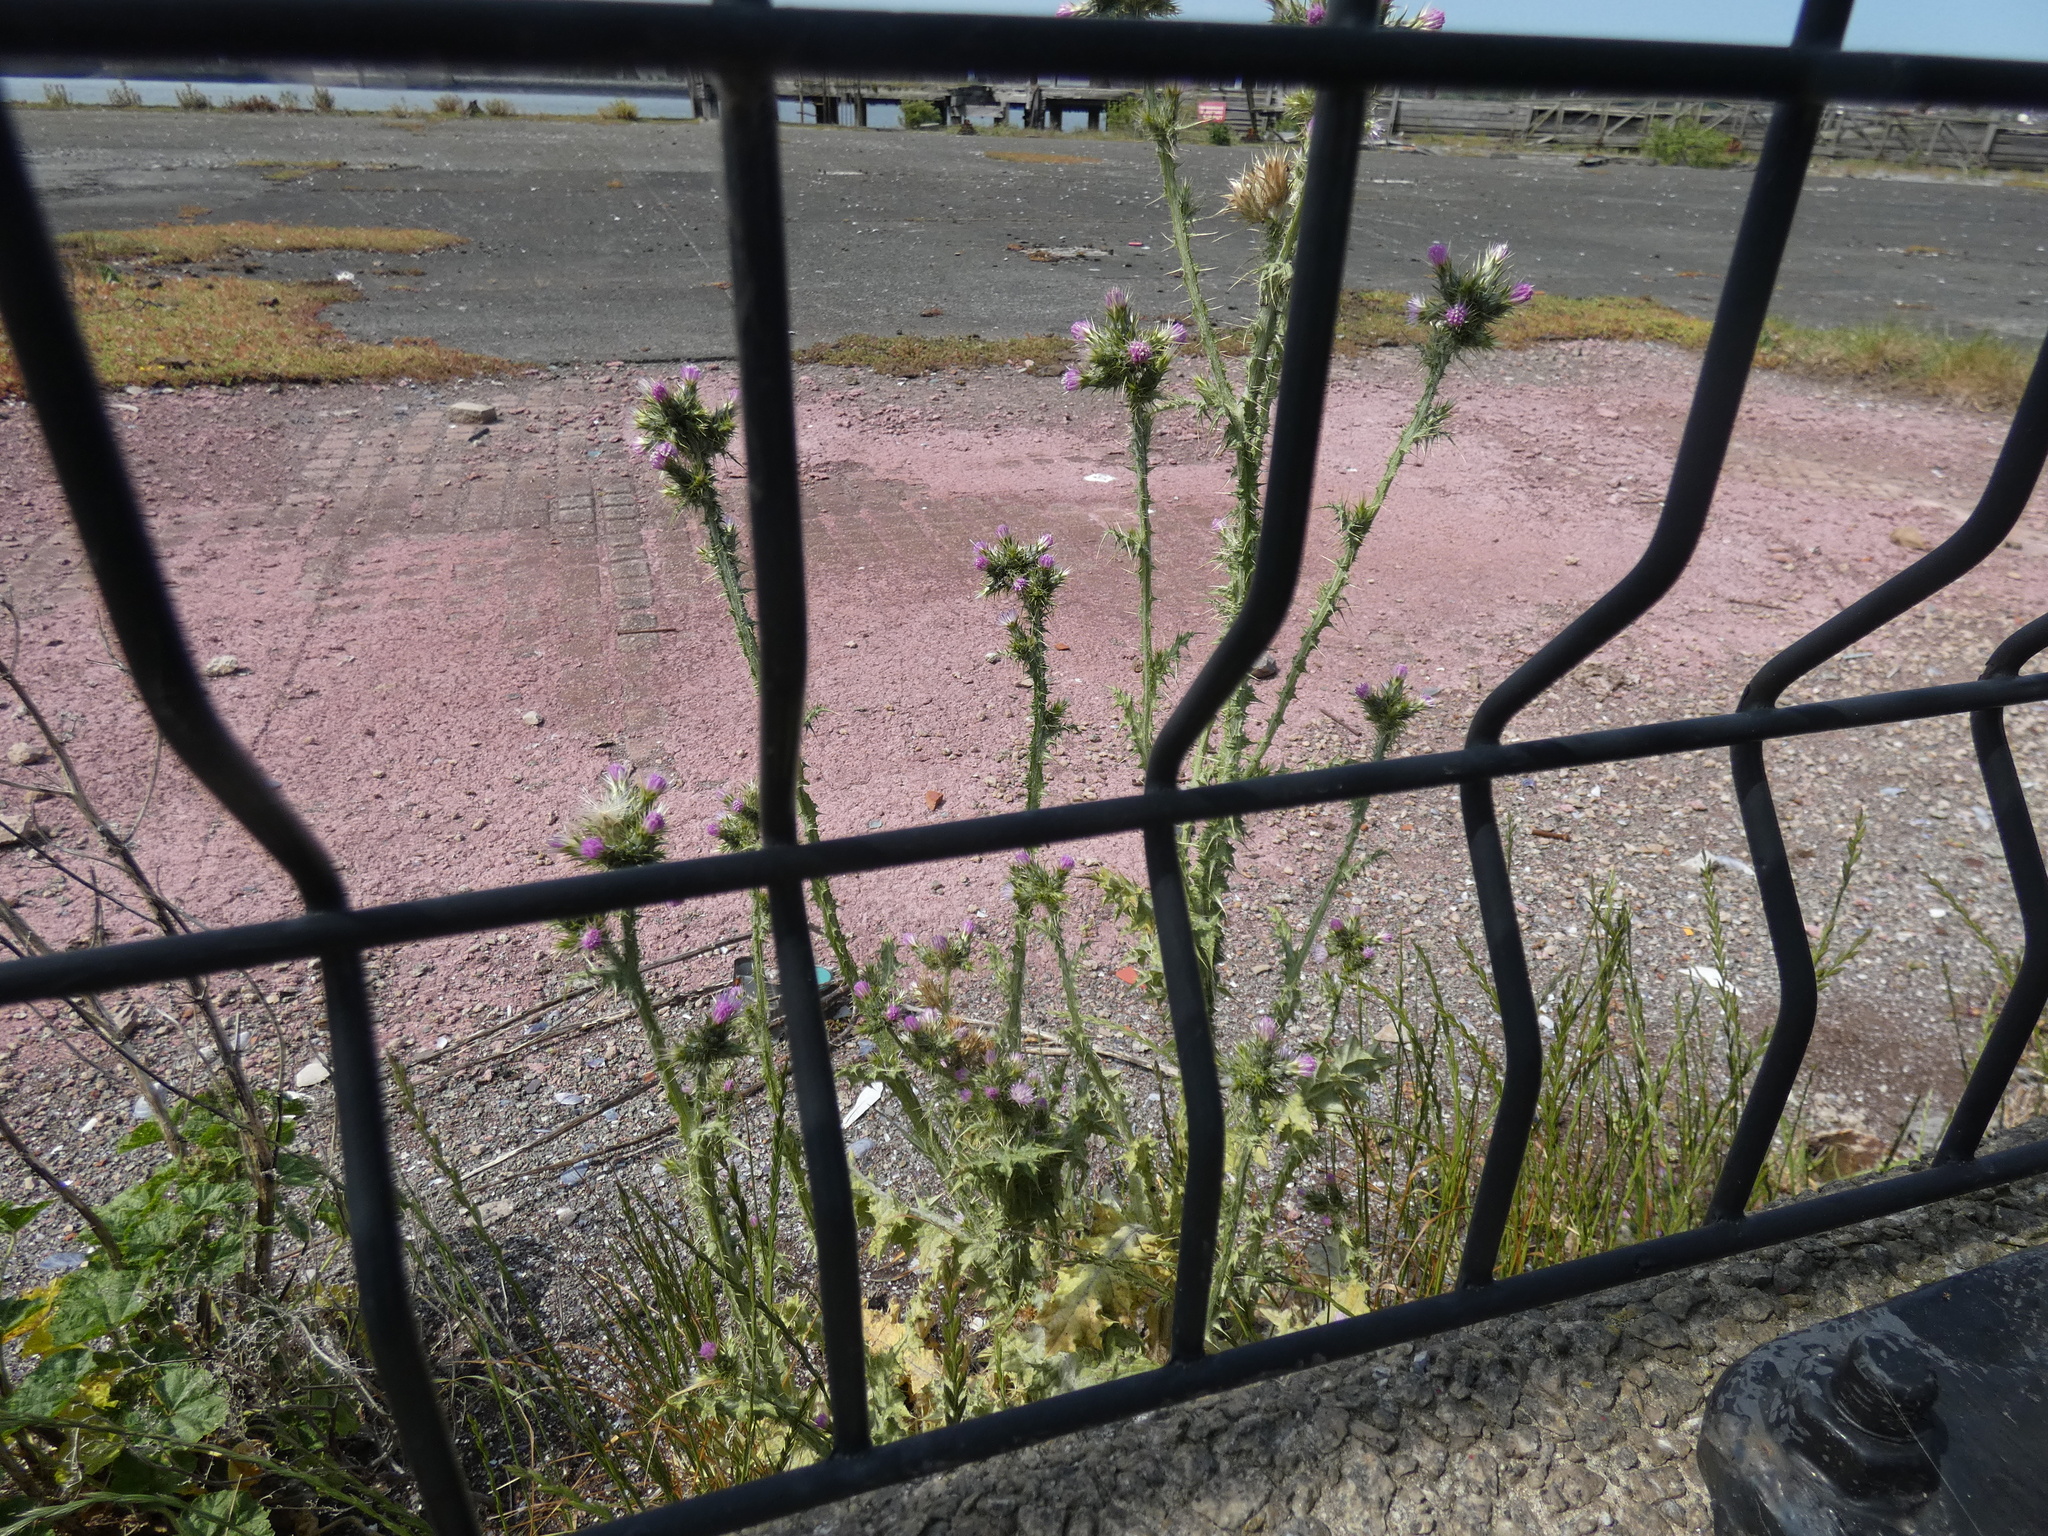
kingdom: Plantae
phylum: Tracheophyta
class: Magnoliopsida
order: Asterales
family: Asteraceae
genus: Carduus
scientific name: Carduus tenuiflorus
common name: Slender thistle
